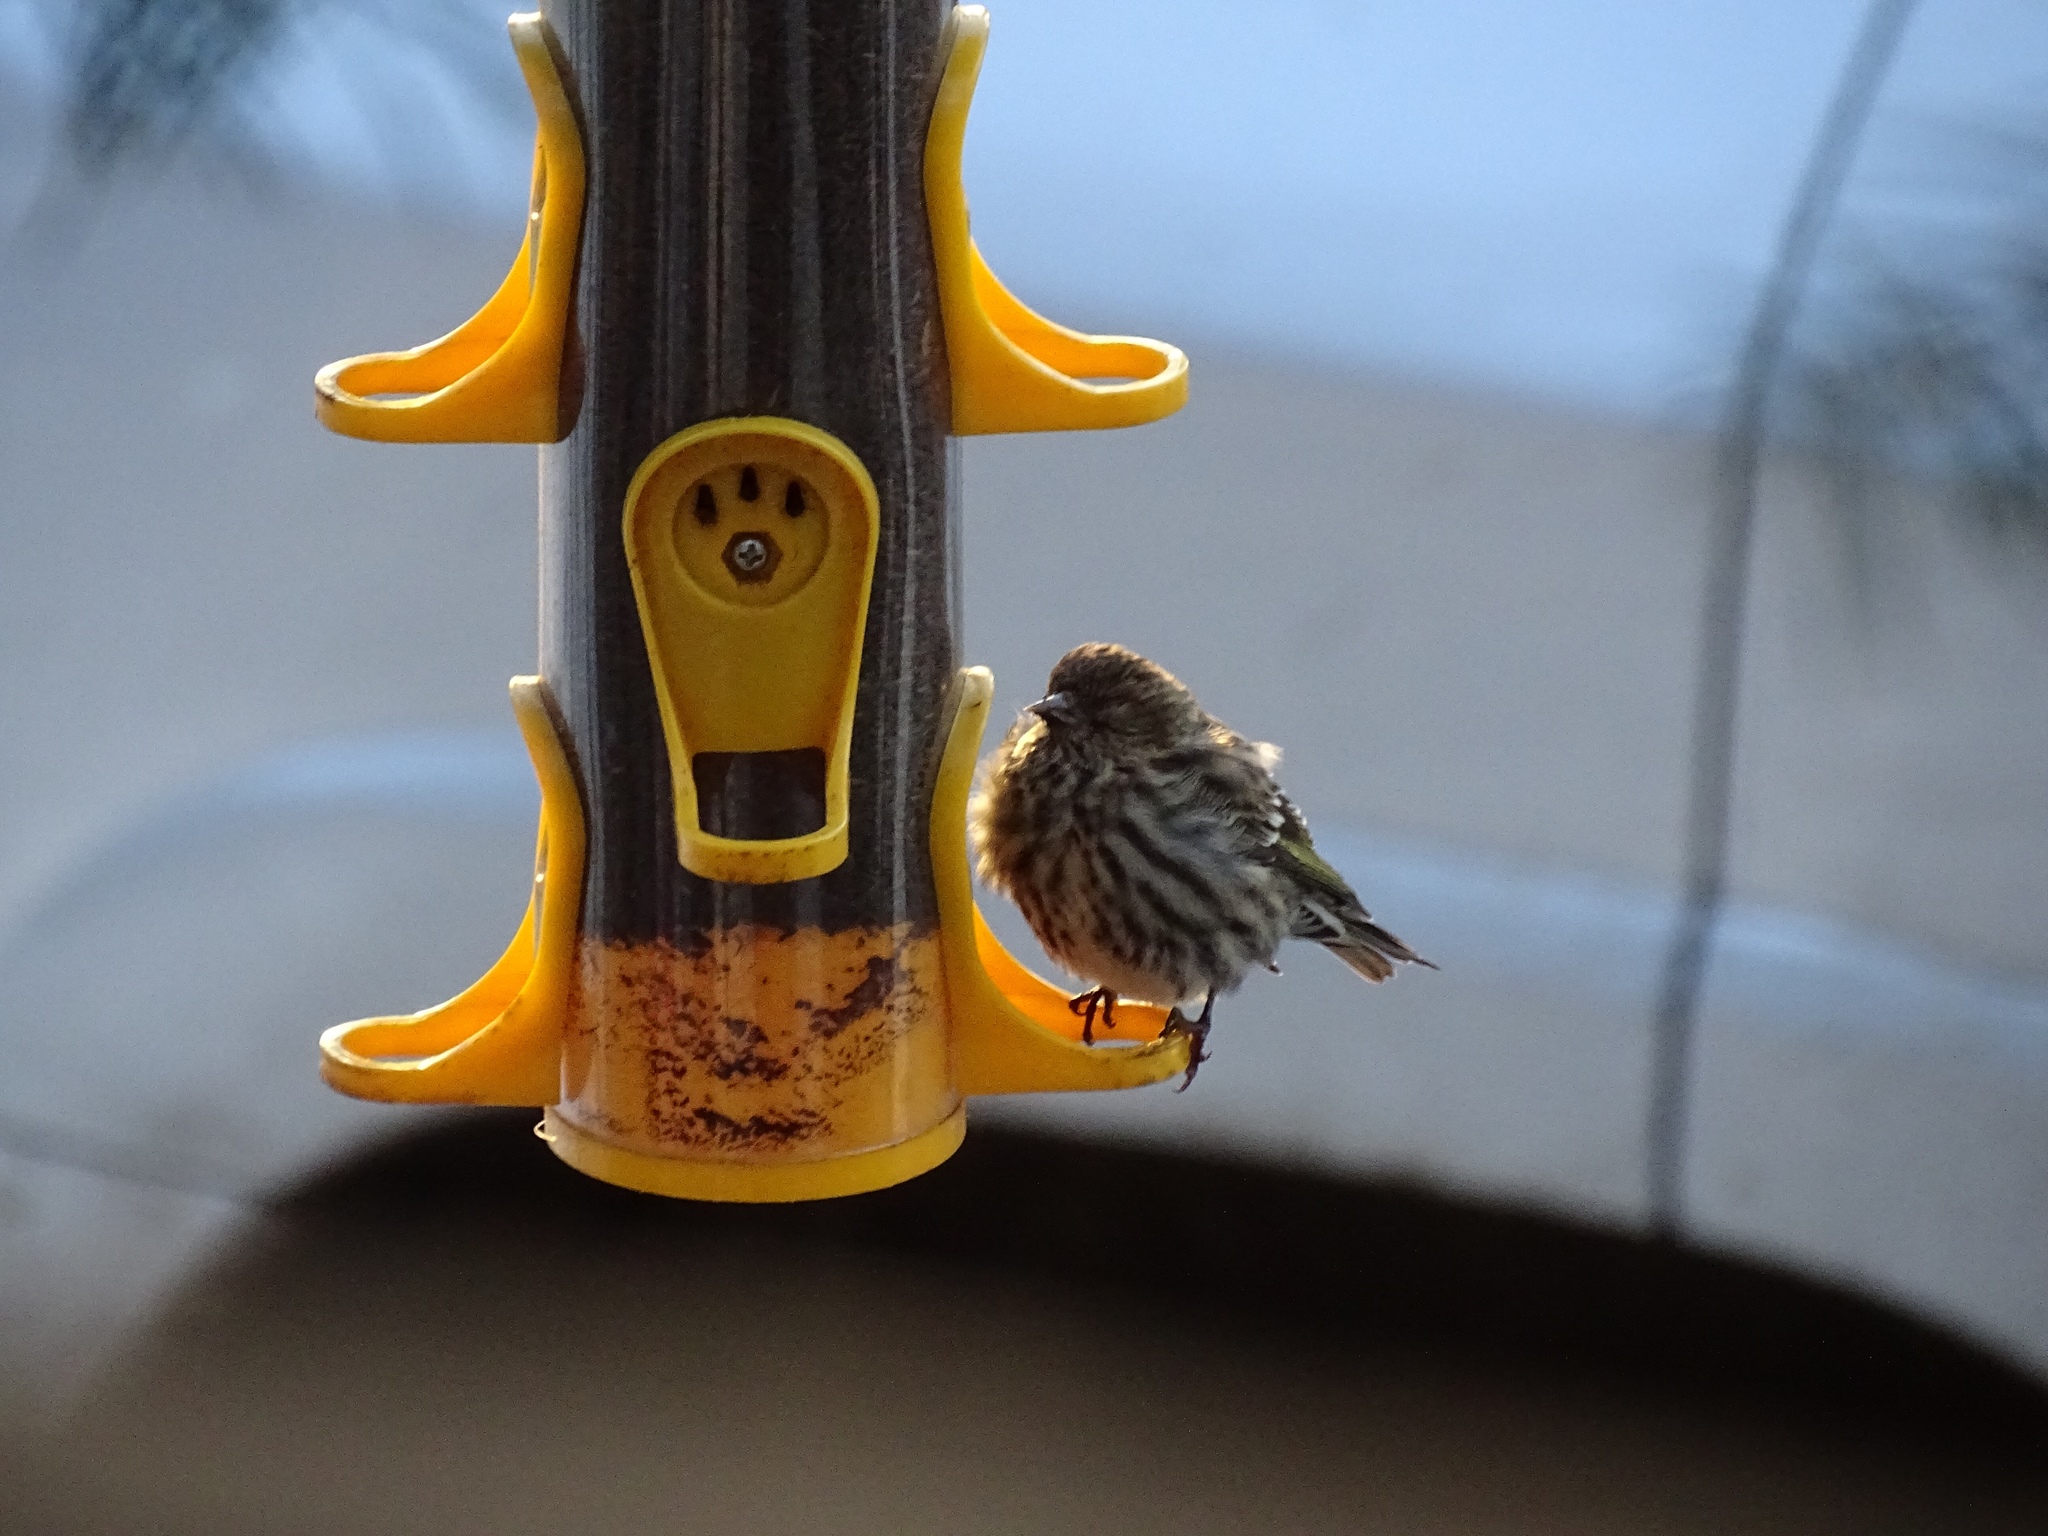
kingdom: Animalia
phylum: Chordata
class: Aves
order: Passeriformes
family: Fringillidae
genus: Spinus
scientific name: Spinus pinus
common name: Pine siskin
